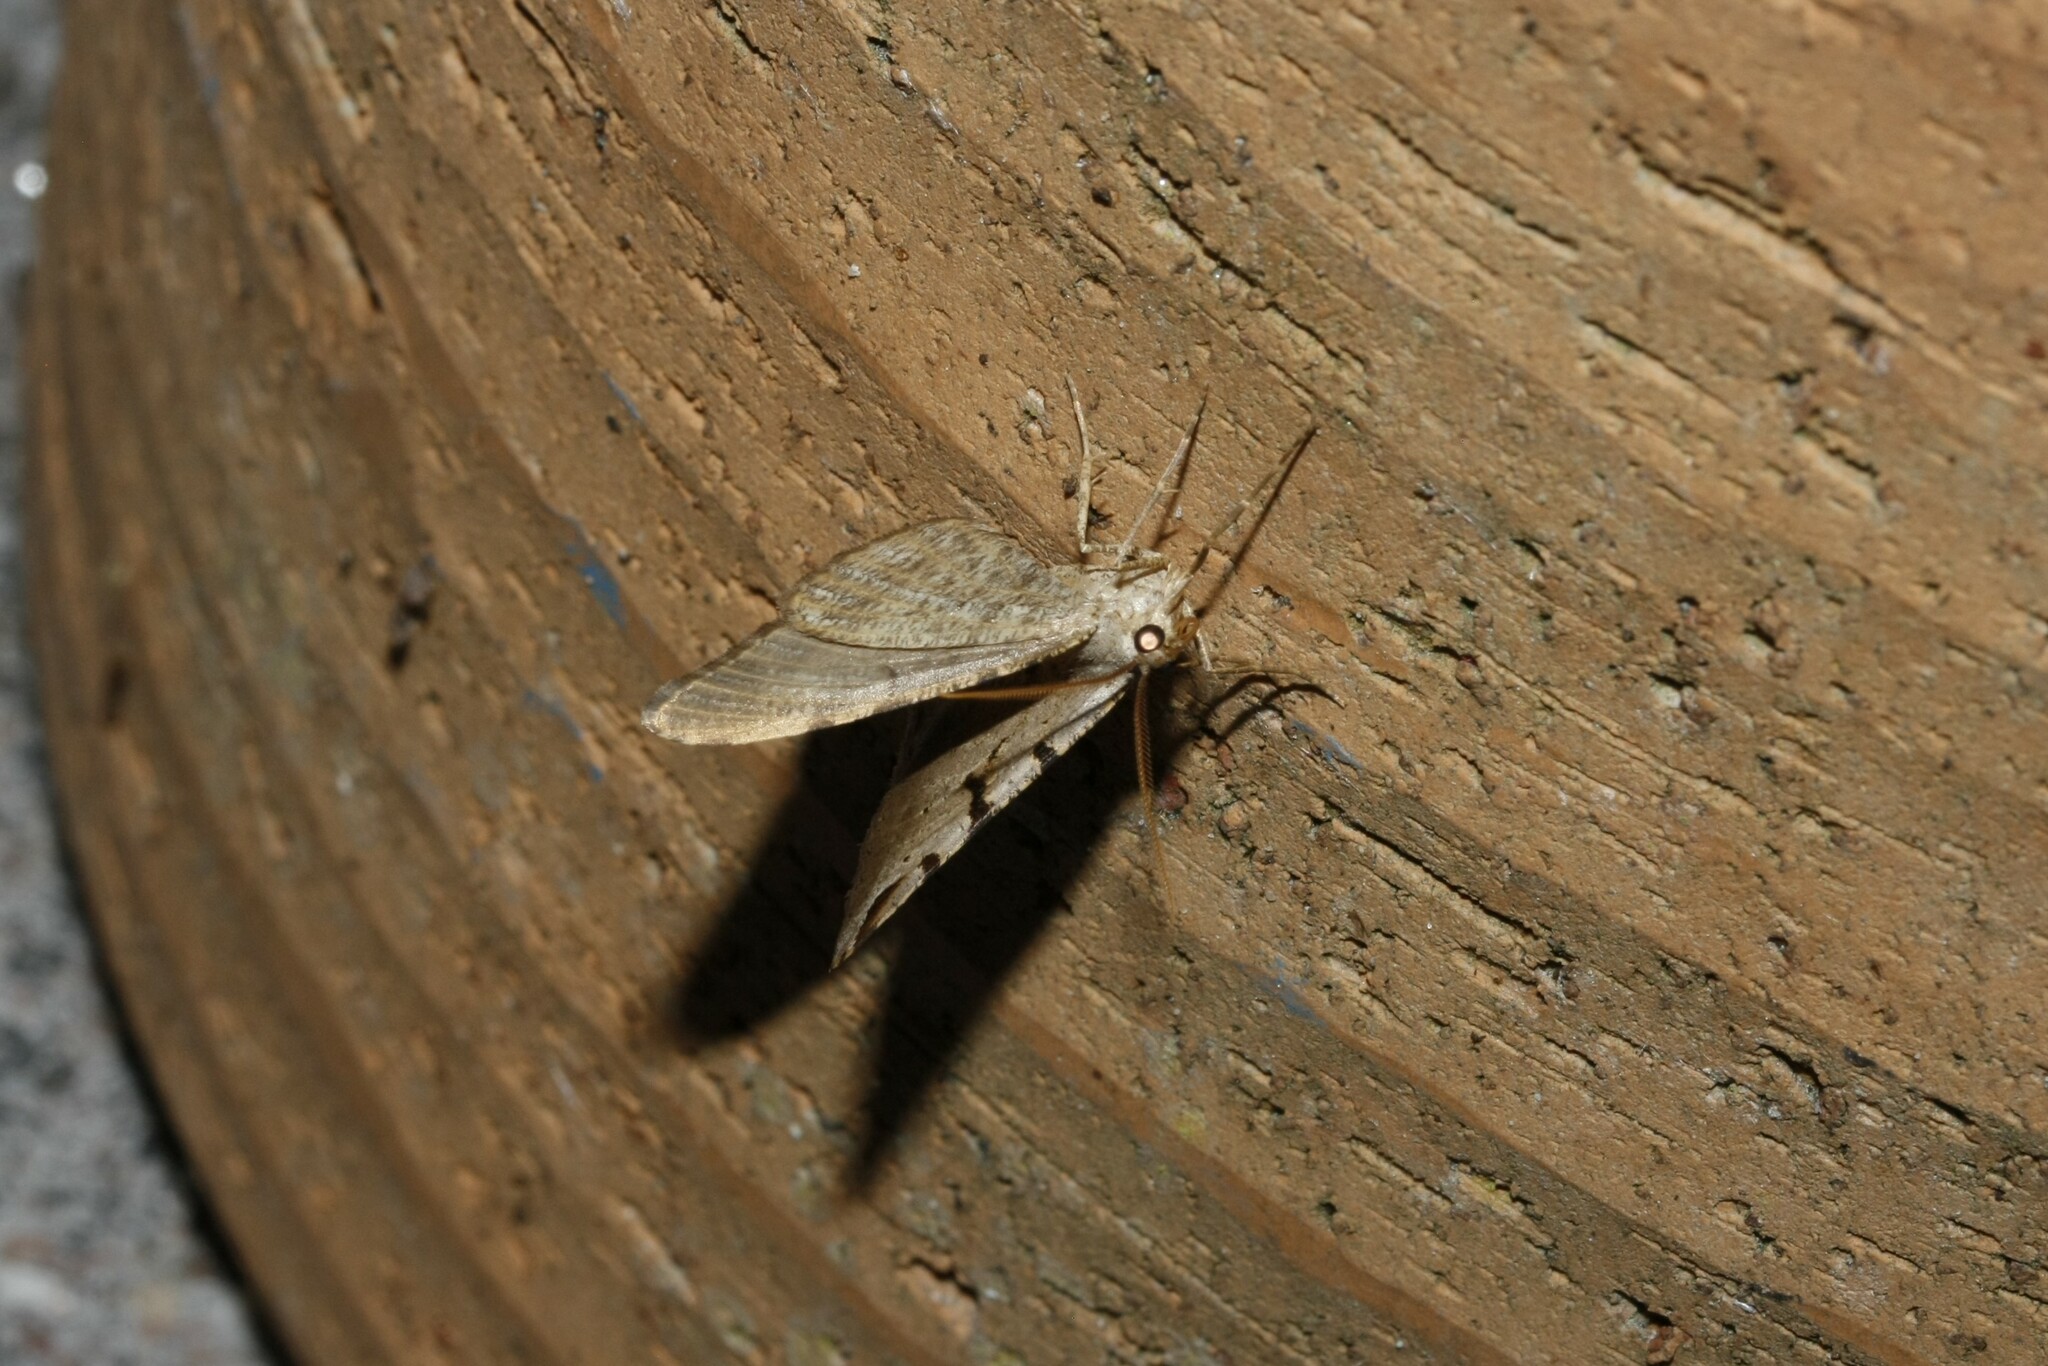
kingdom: Animalia
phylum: Arthropoda
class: Insecta
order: Lepidoptera
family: Geometridae
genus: Macaria
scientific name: Macaria wauaria
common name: V-moth
